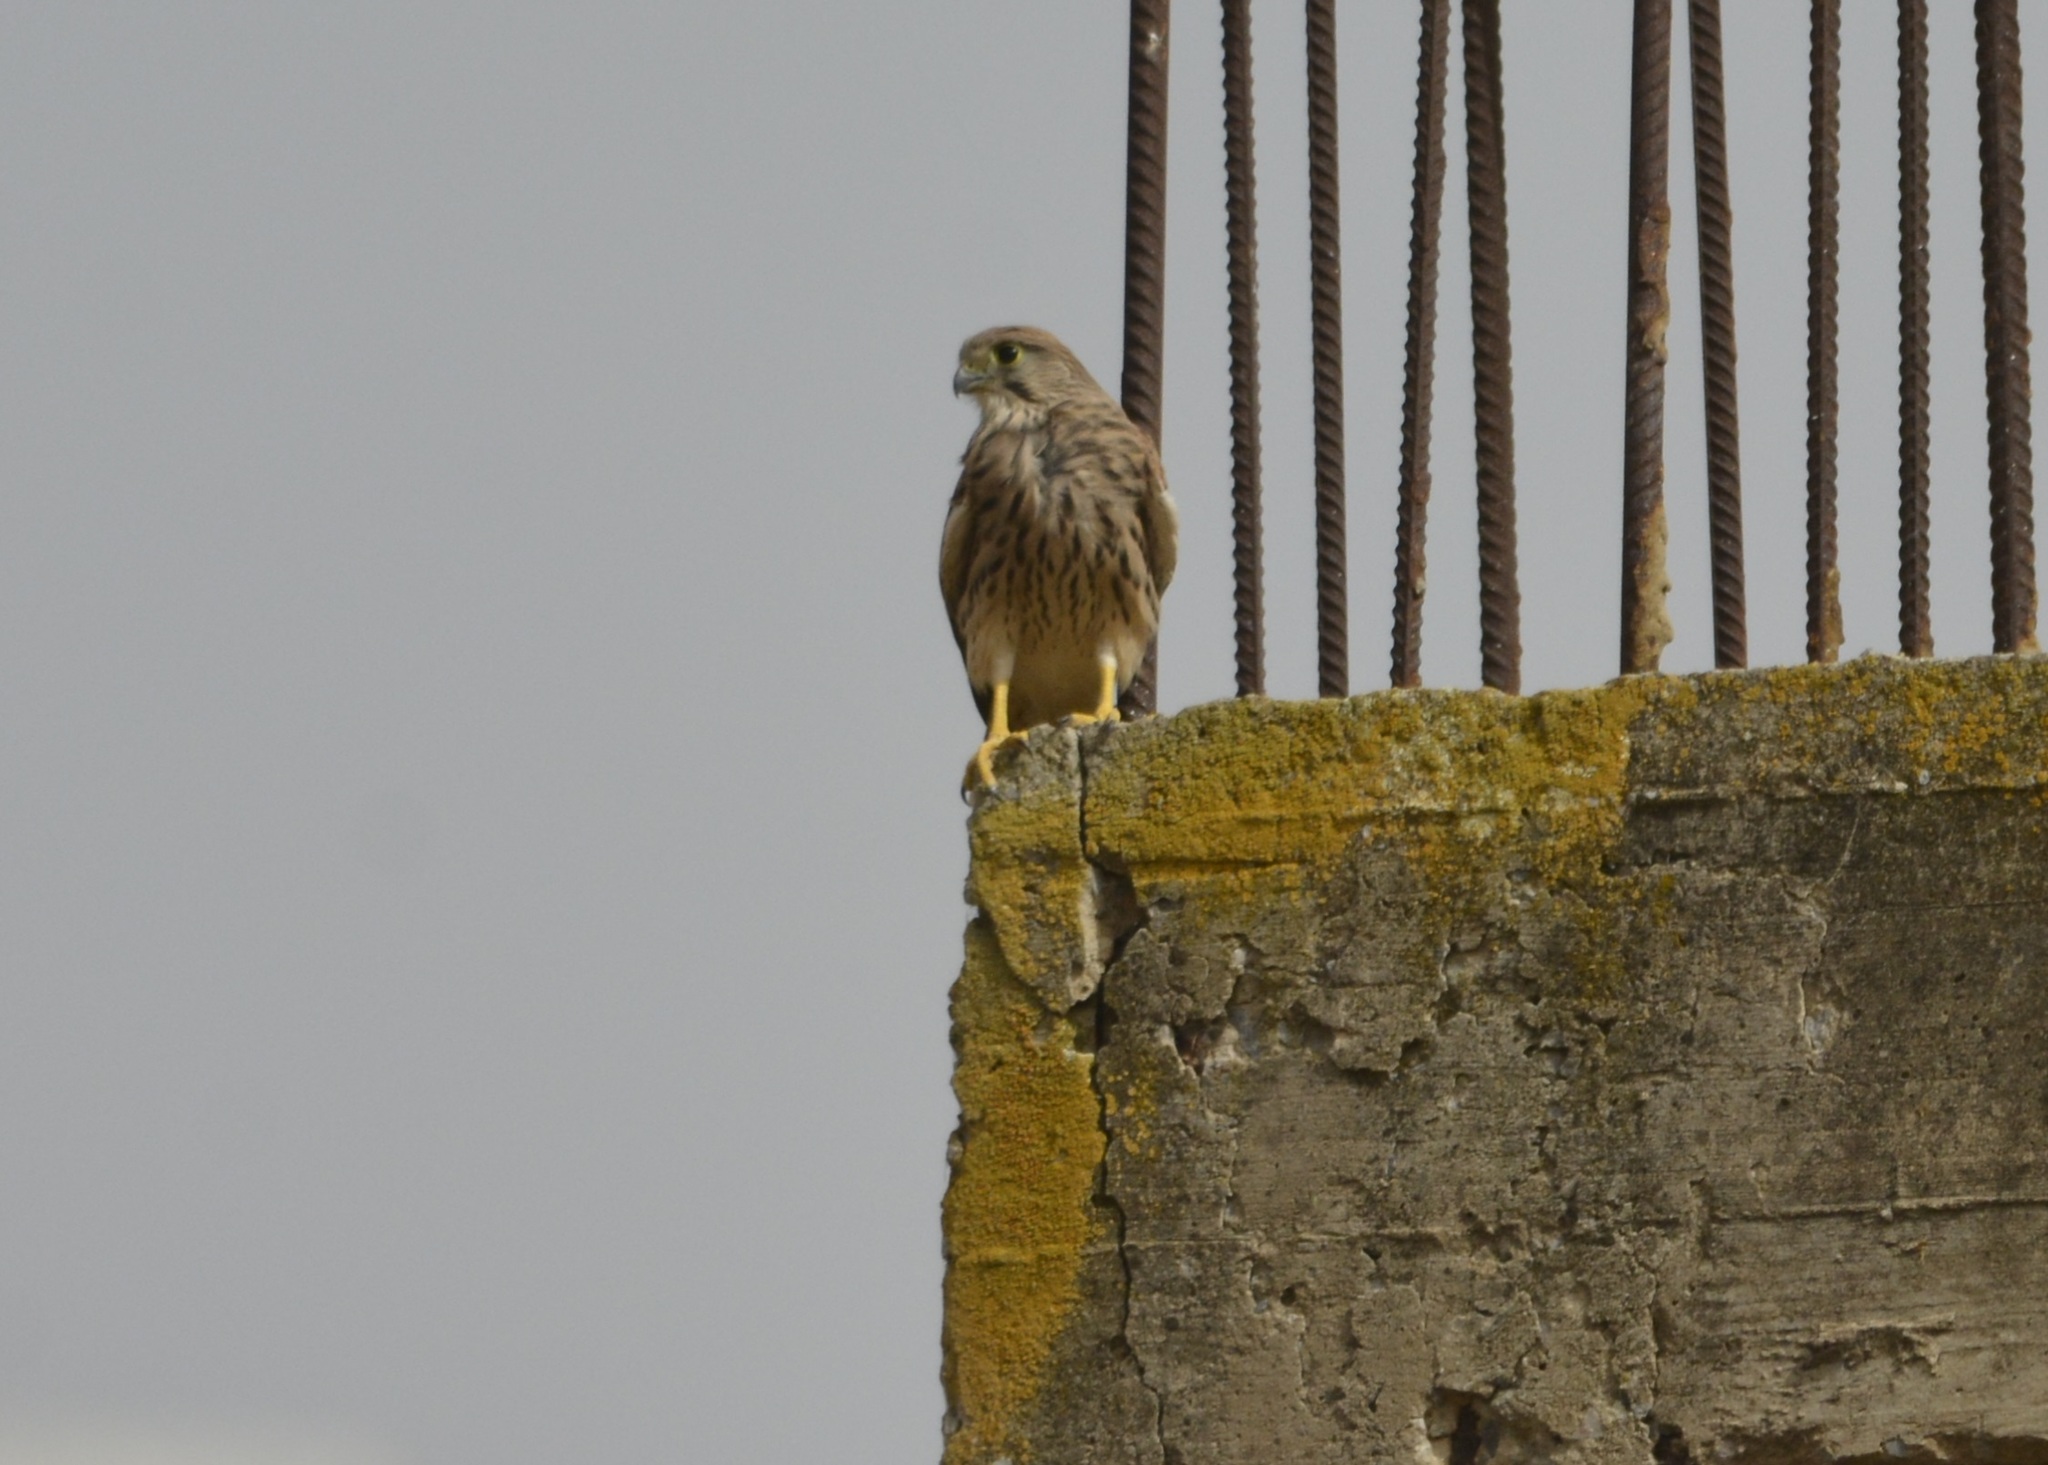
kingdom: Animalia
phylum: Chordata
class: Aves
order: Falconiformes
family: Falconidae
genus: Falco
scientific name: Falco tinnunculus
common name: Common kestrel
